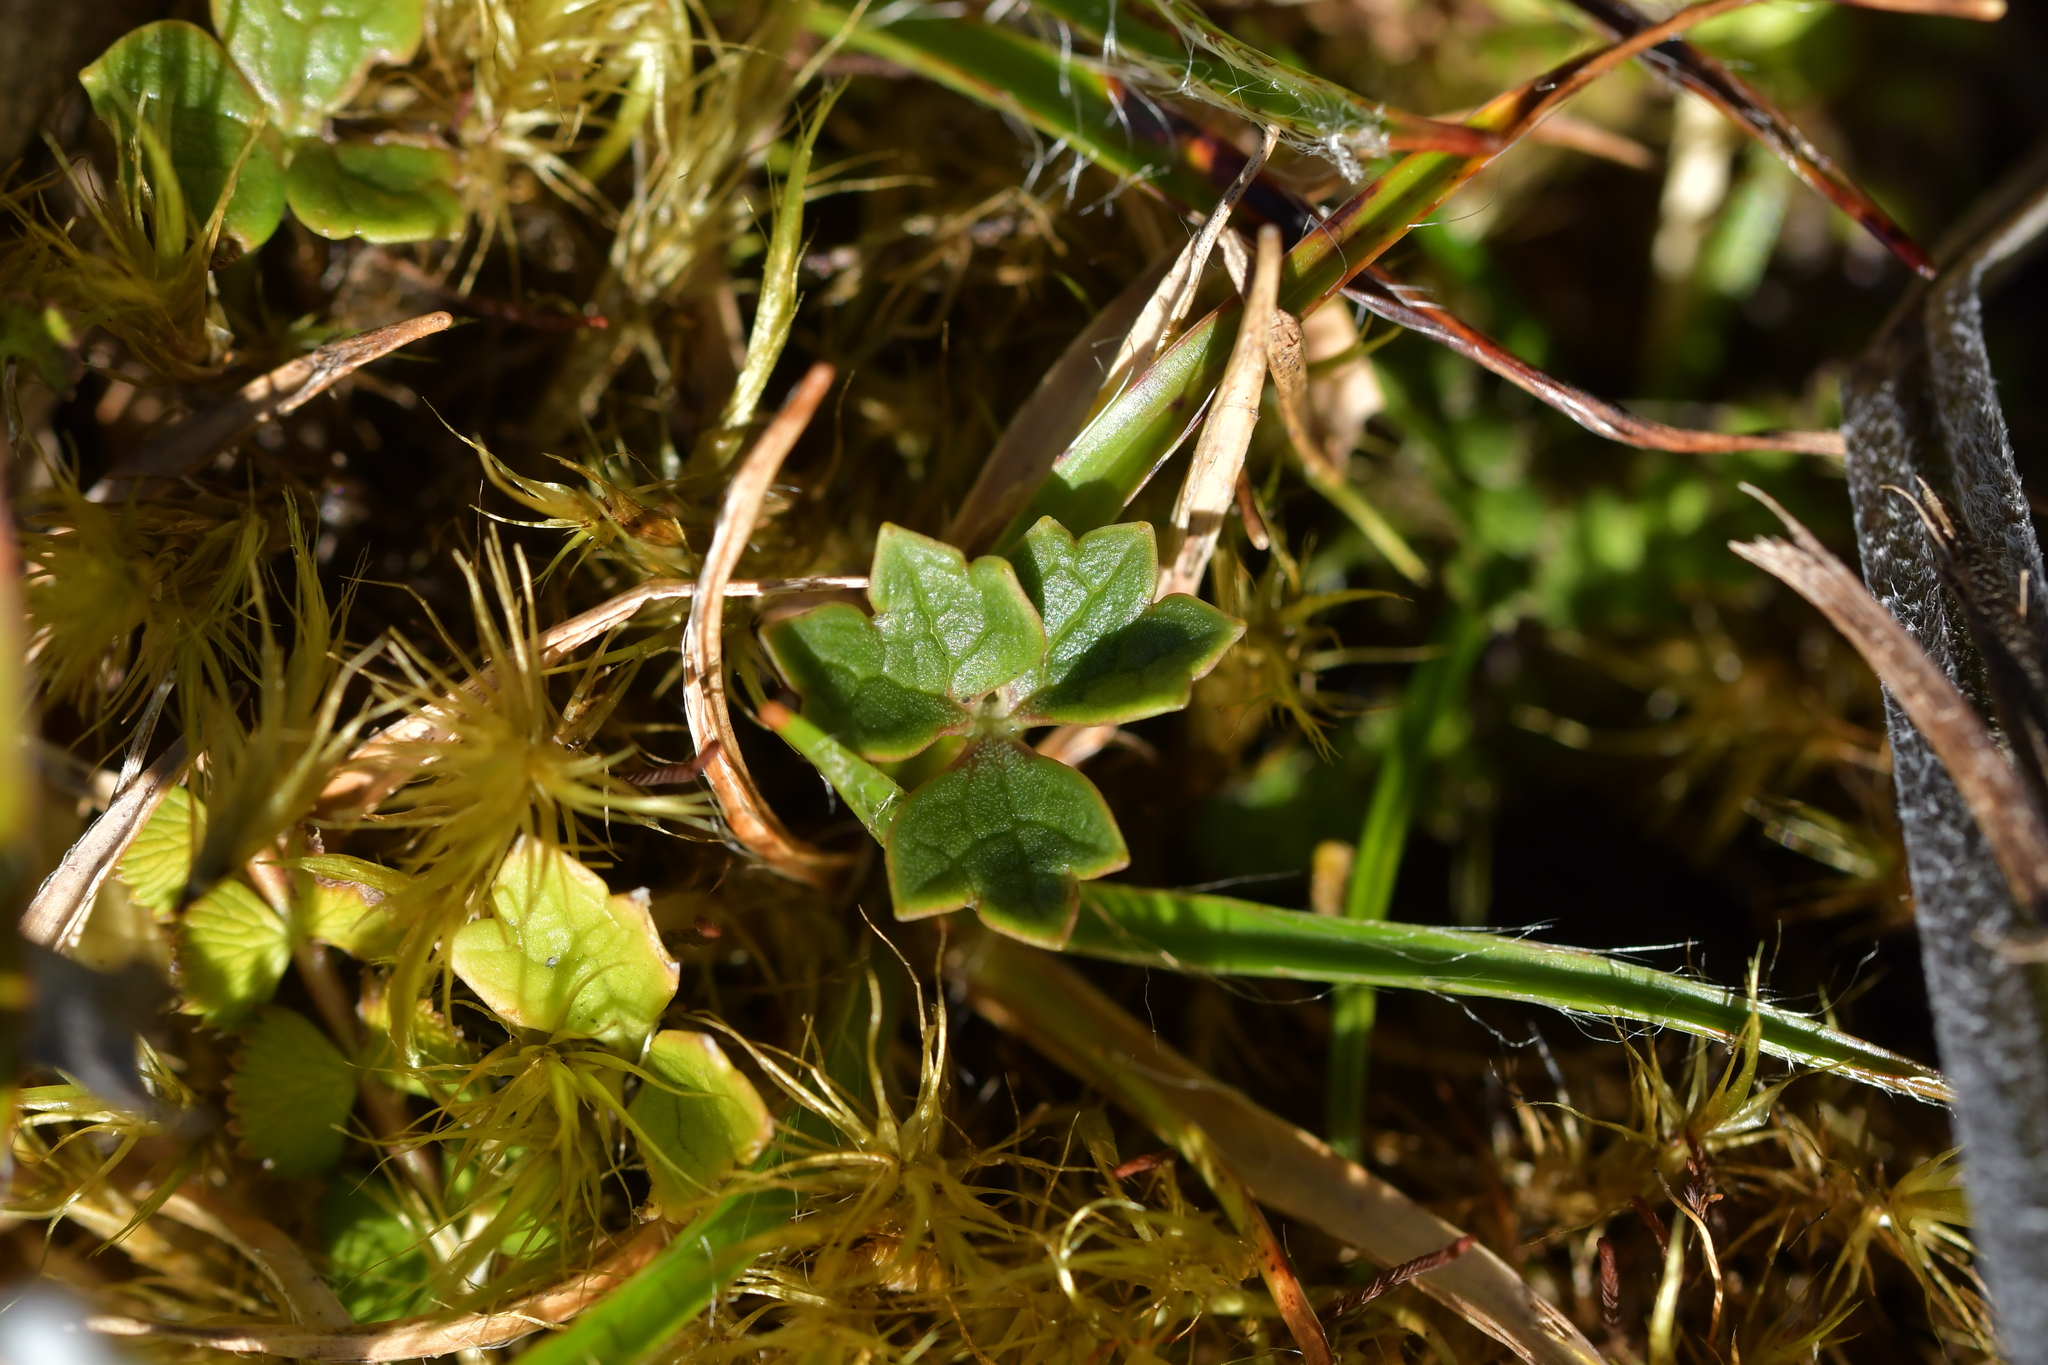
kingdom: Plantae
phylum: Tracheophyta
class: Magnoliopsida
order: Ranunculales
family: Ranunculaceae
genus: Ranunculus
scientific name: Ranunculus verticillatus
